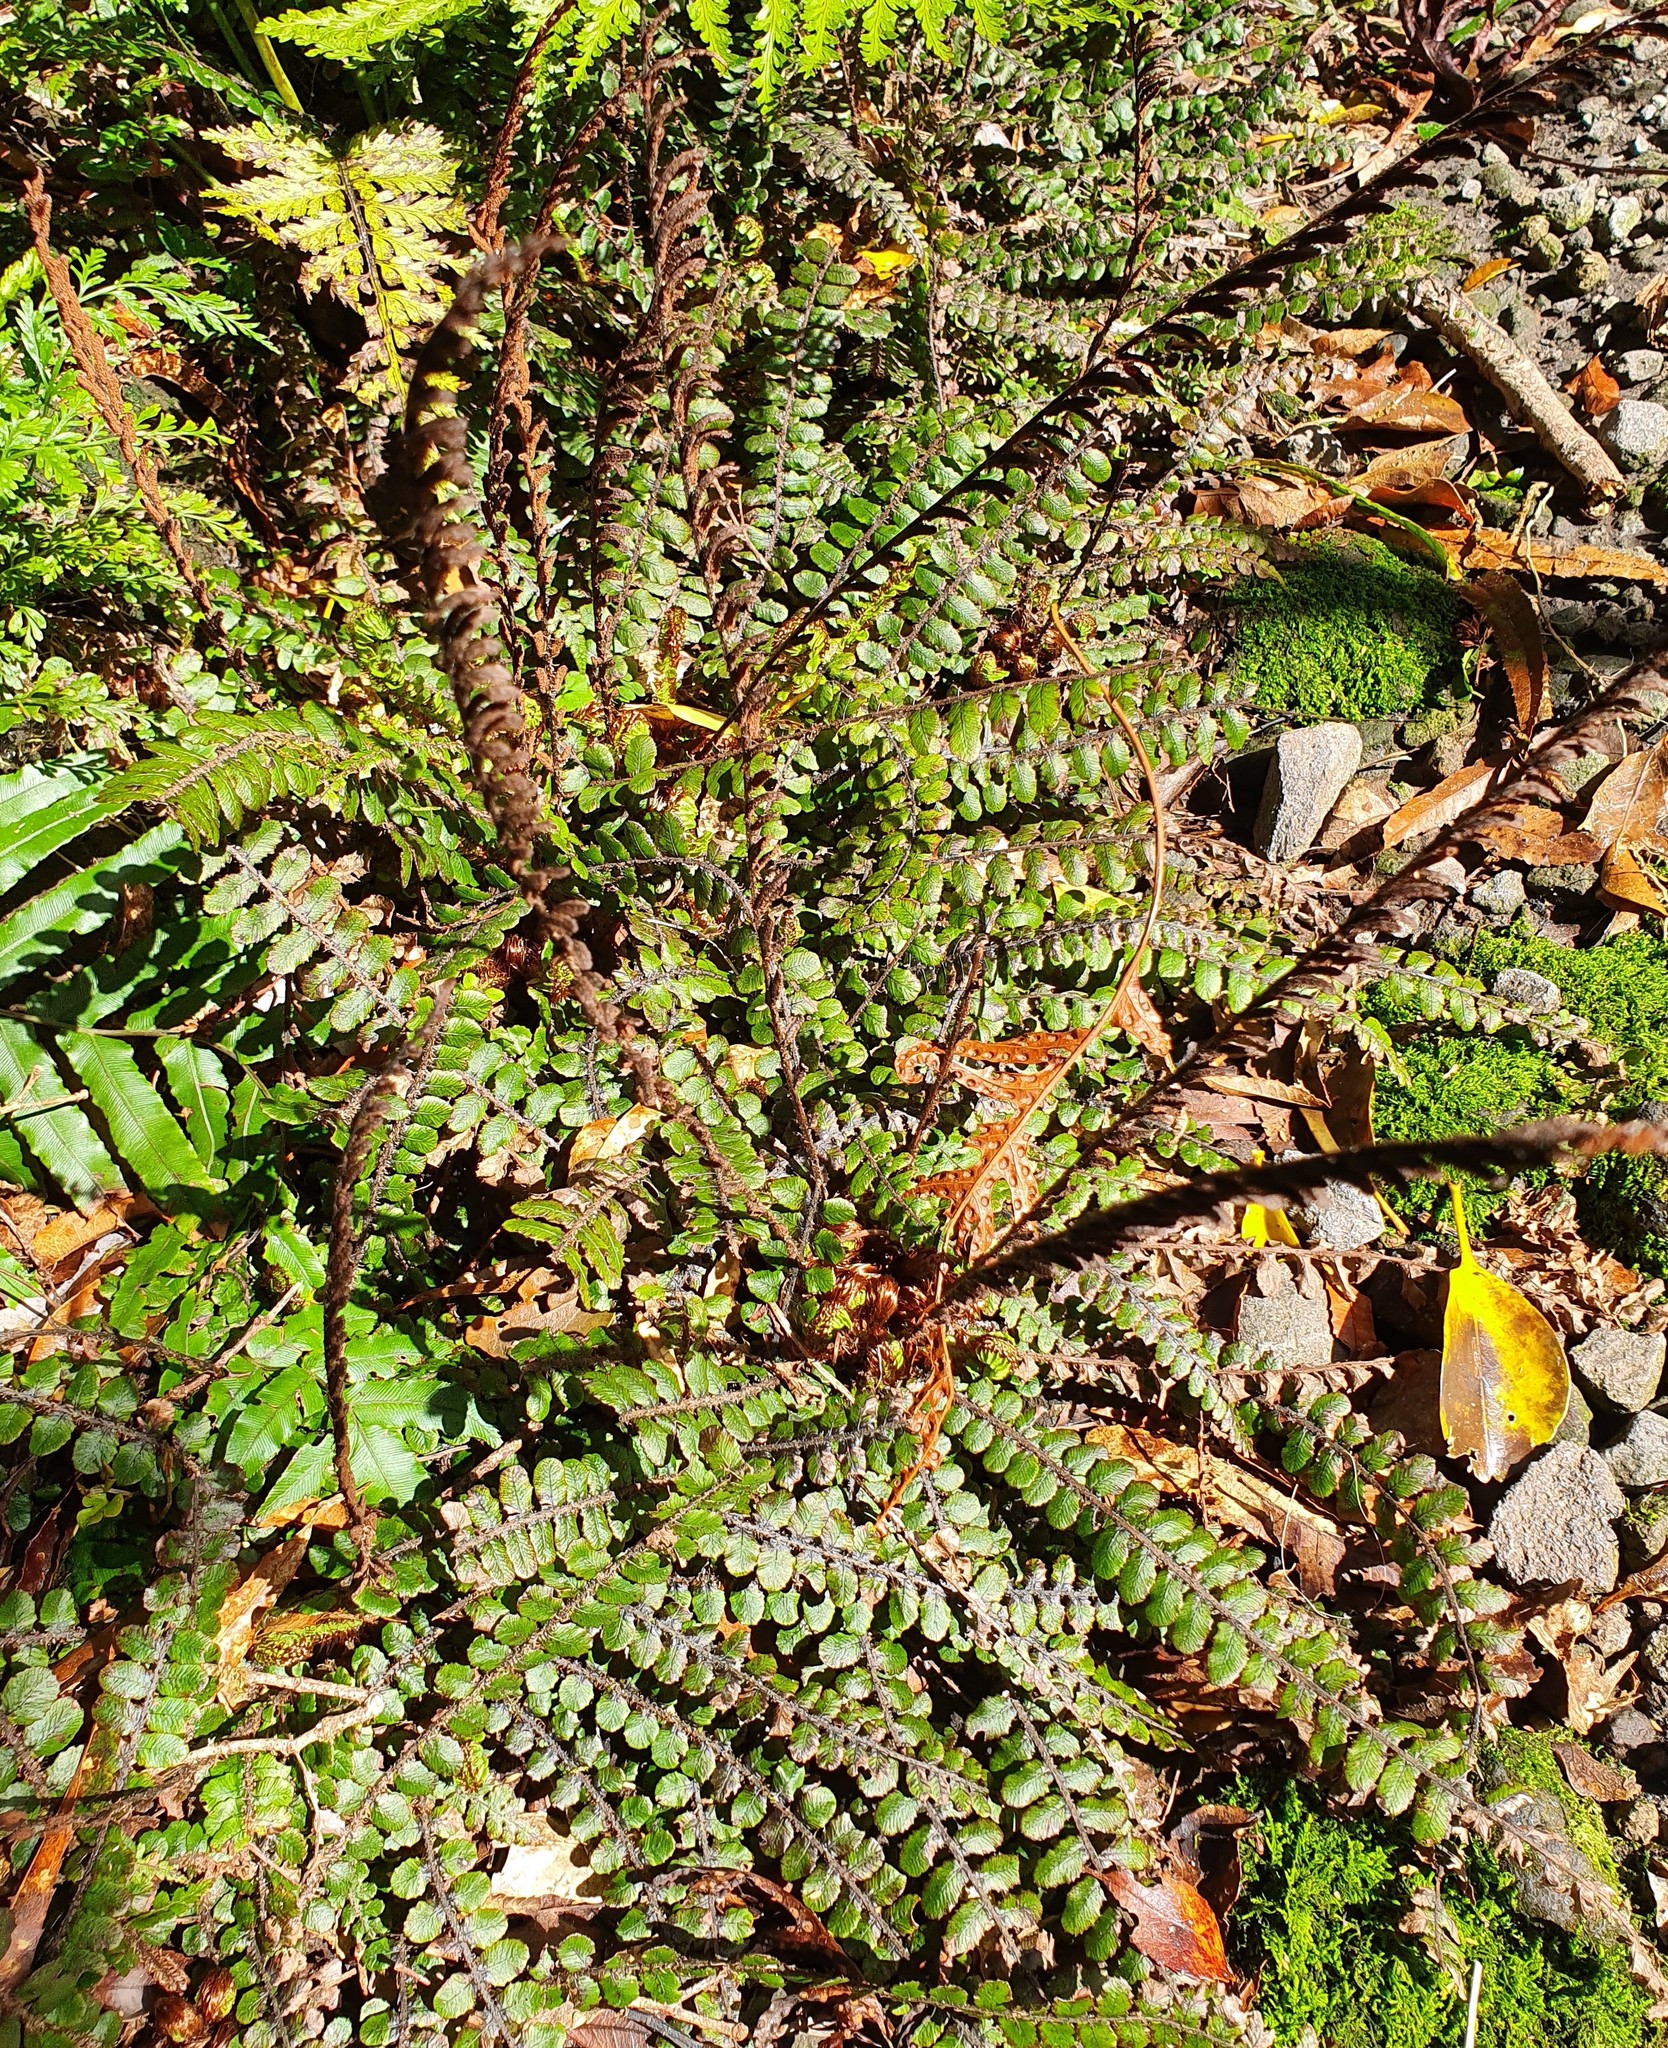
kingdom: Plantae
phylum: Tracheophyta
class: Polypodiopsida
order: Polypodiales
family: Blechnaceae
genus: Cranfillia
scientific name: Cranfillia fluviatilis
